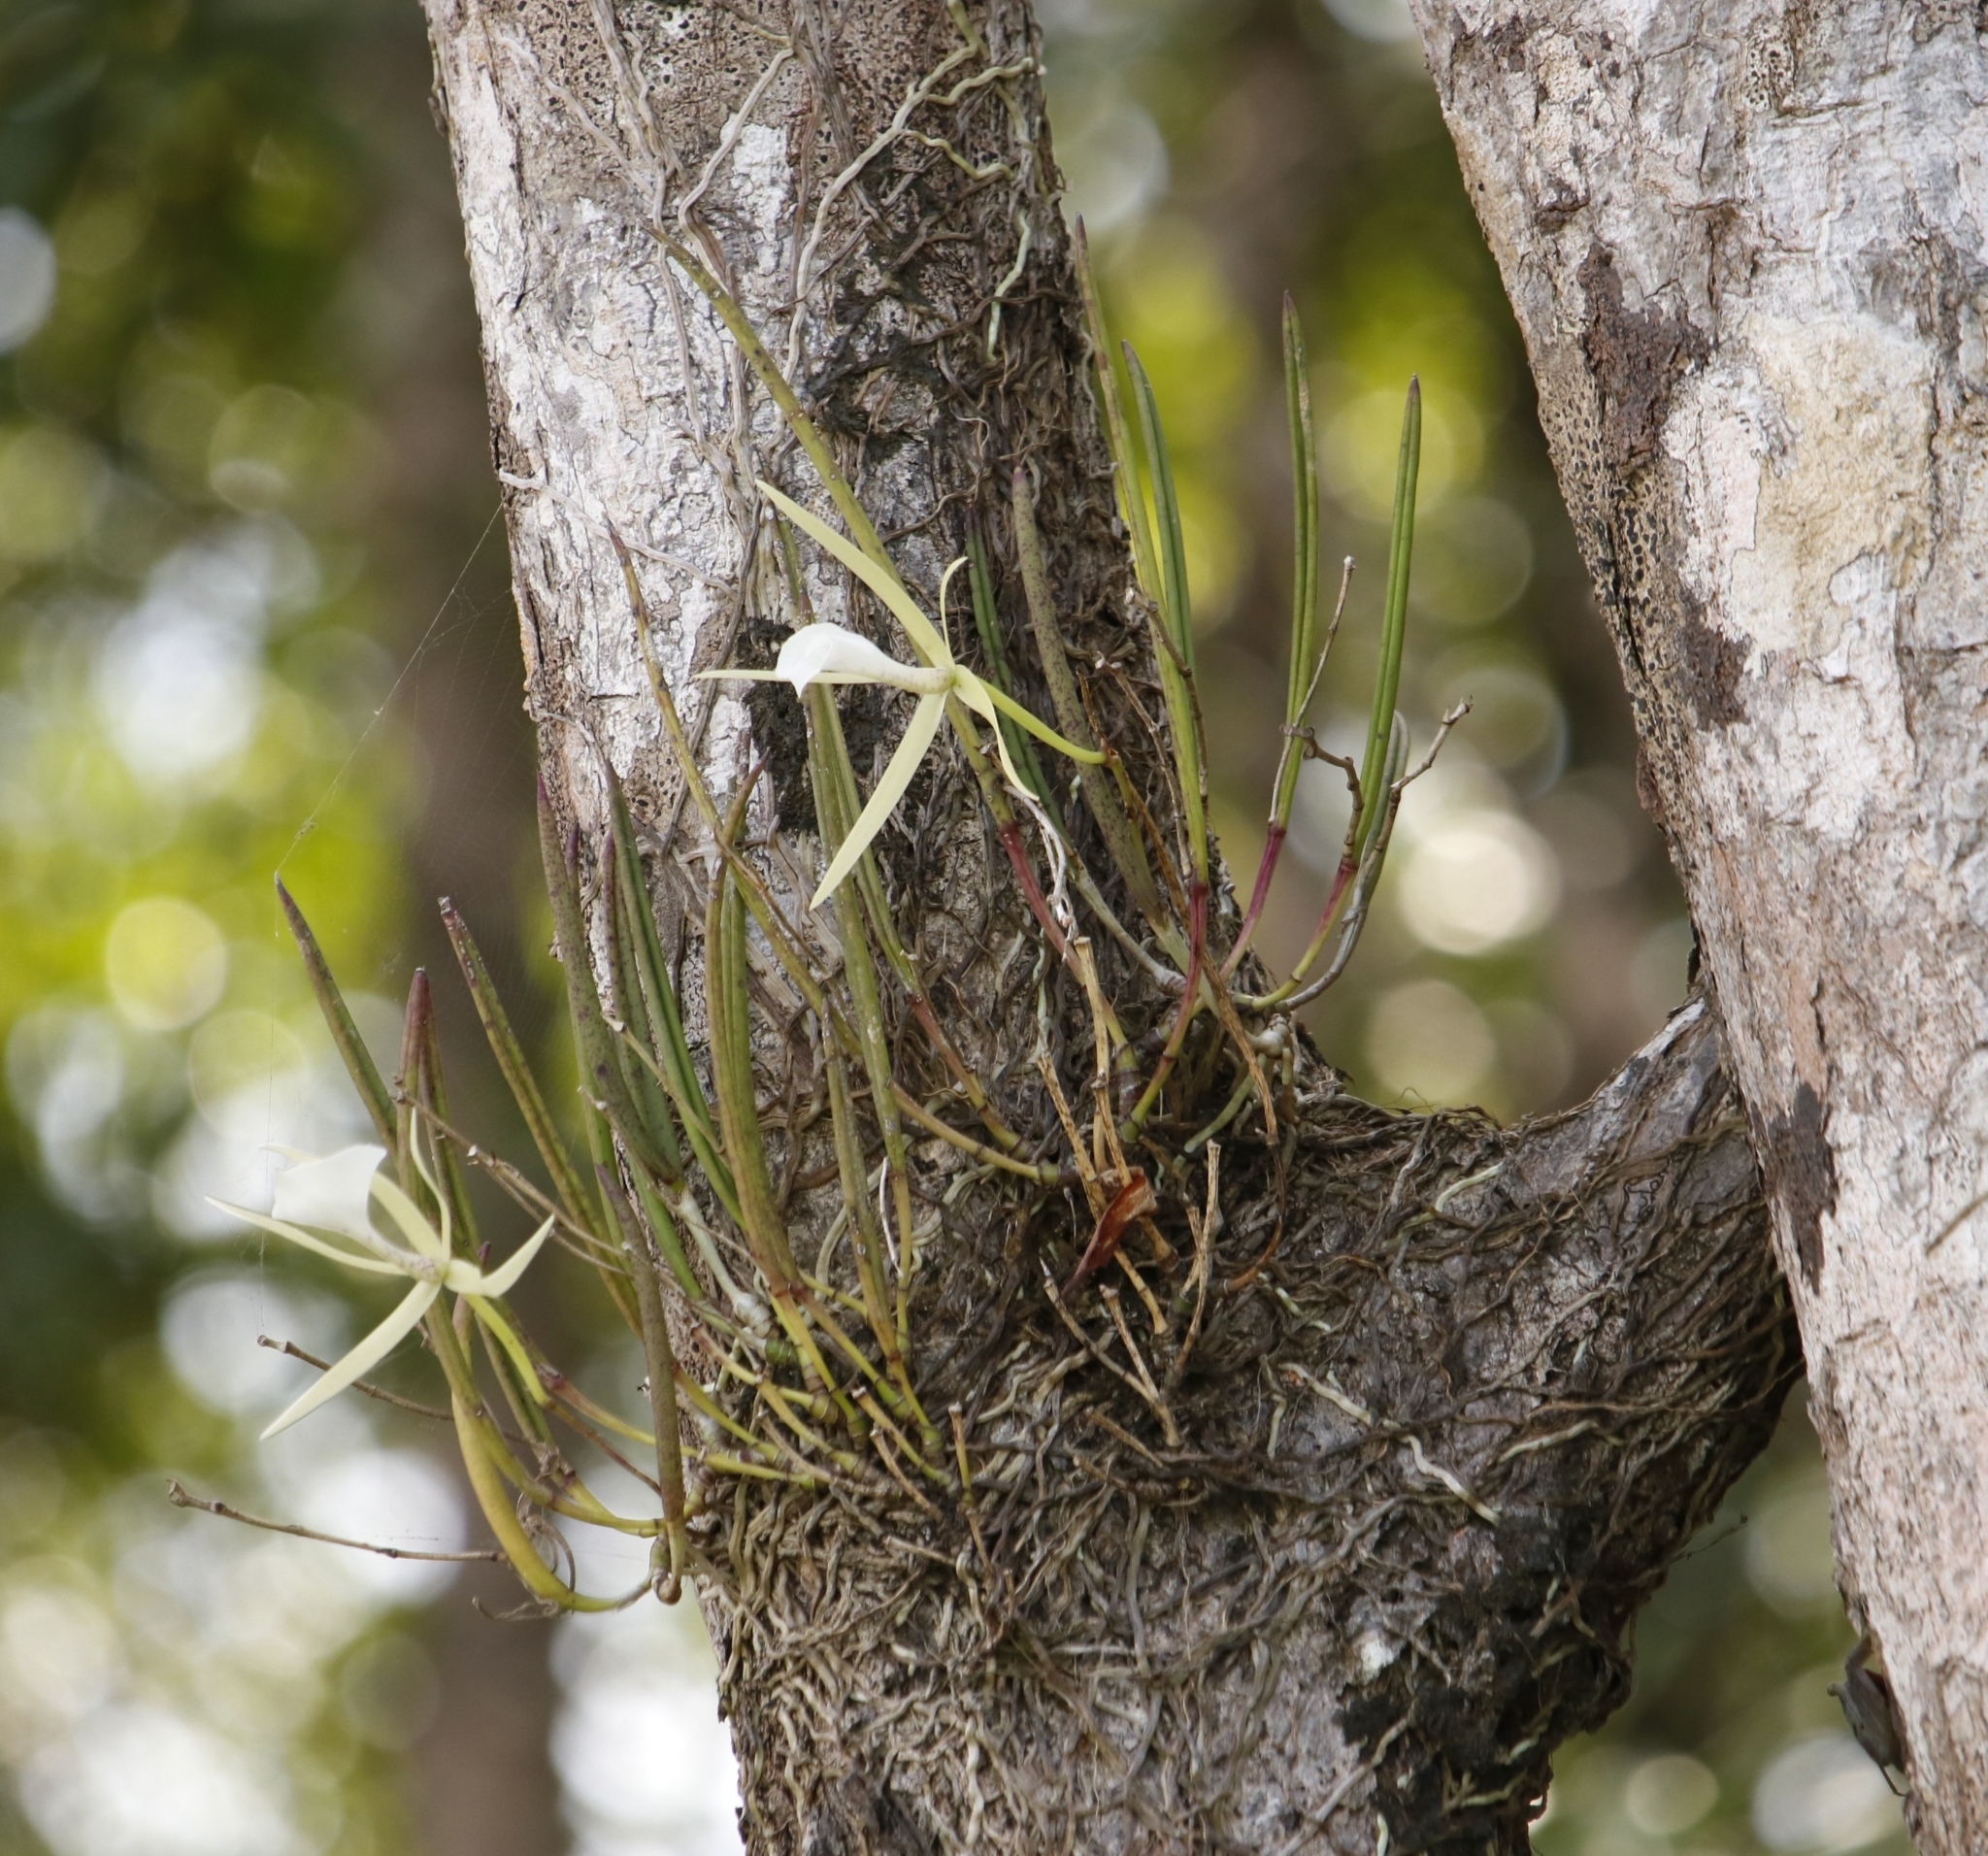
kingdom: Plantae
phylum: Tracheophyta
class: Liliopsida
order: Asparagales
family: Orchidaceae
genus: Brassavola
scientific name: Brassavola nodosa
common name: Lady of the night
